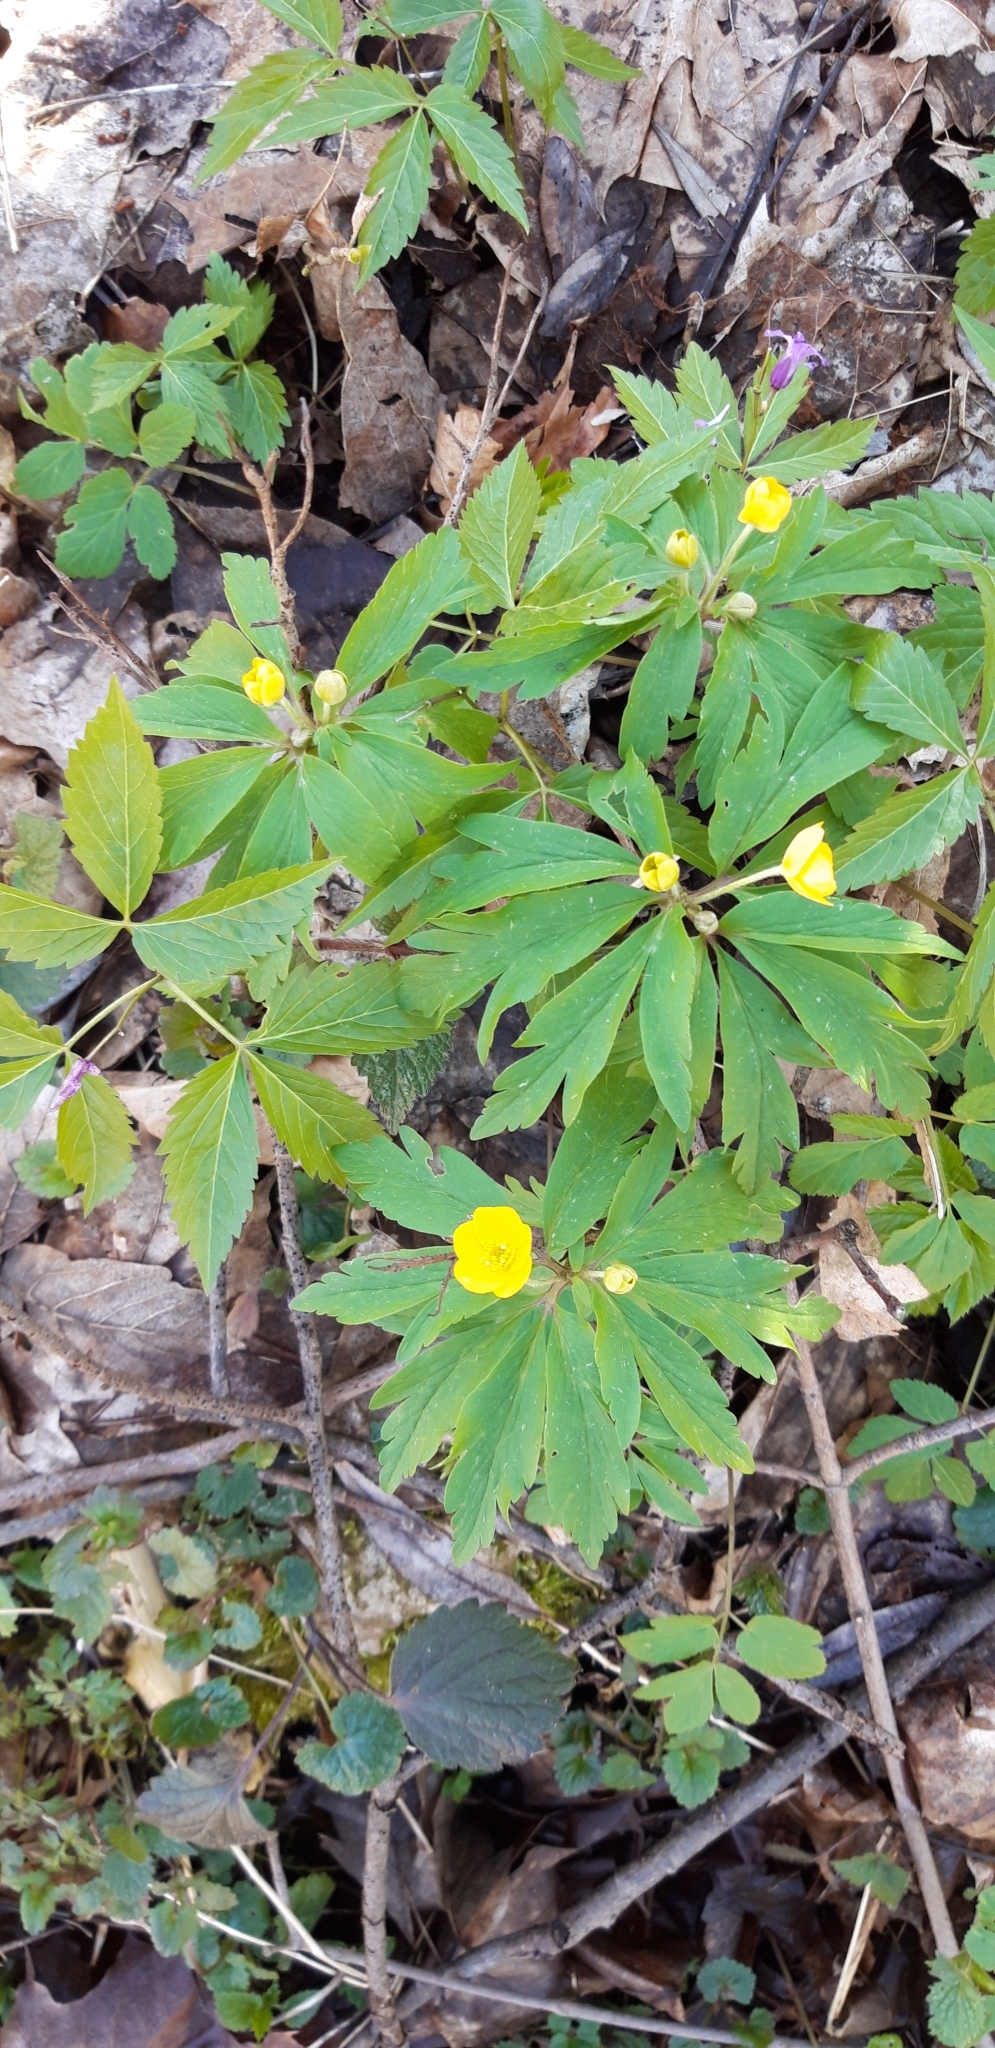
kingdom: Plantae
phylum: Tracheophyta
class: Magnoliopsida
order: Ranunculales
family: Ranunculaceae
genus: Anemone
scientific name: Anemone ranunculoides
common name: Yellow anemone
